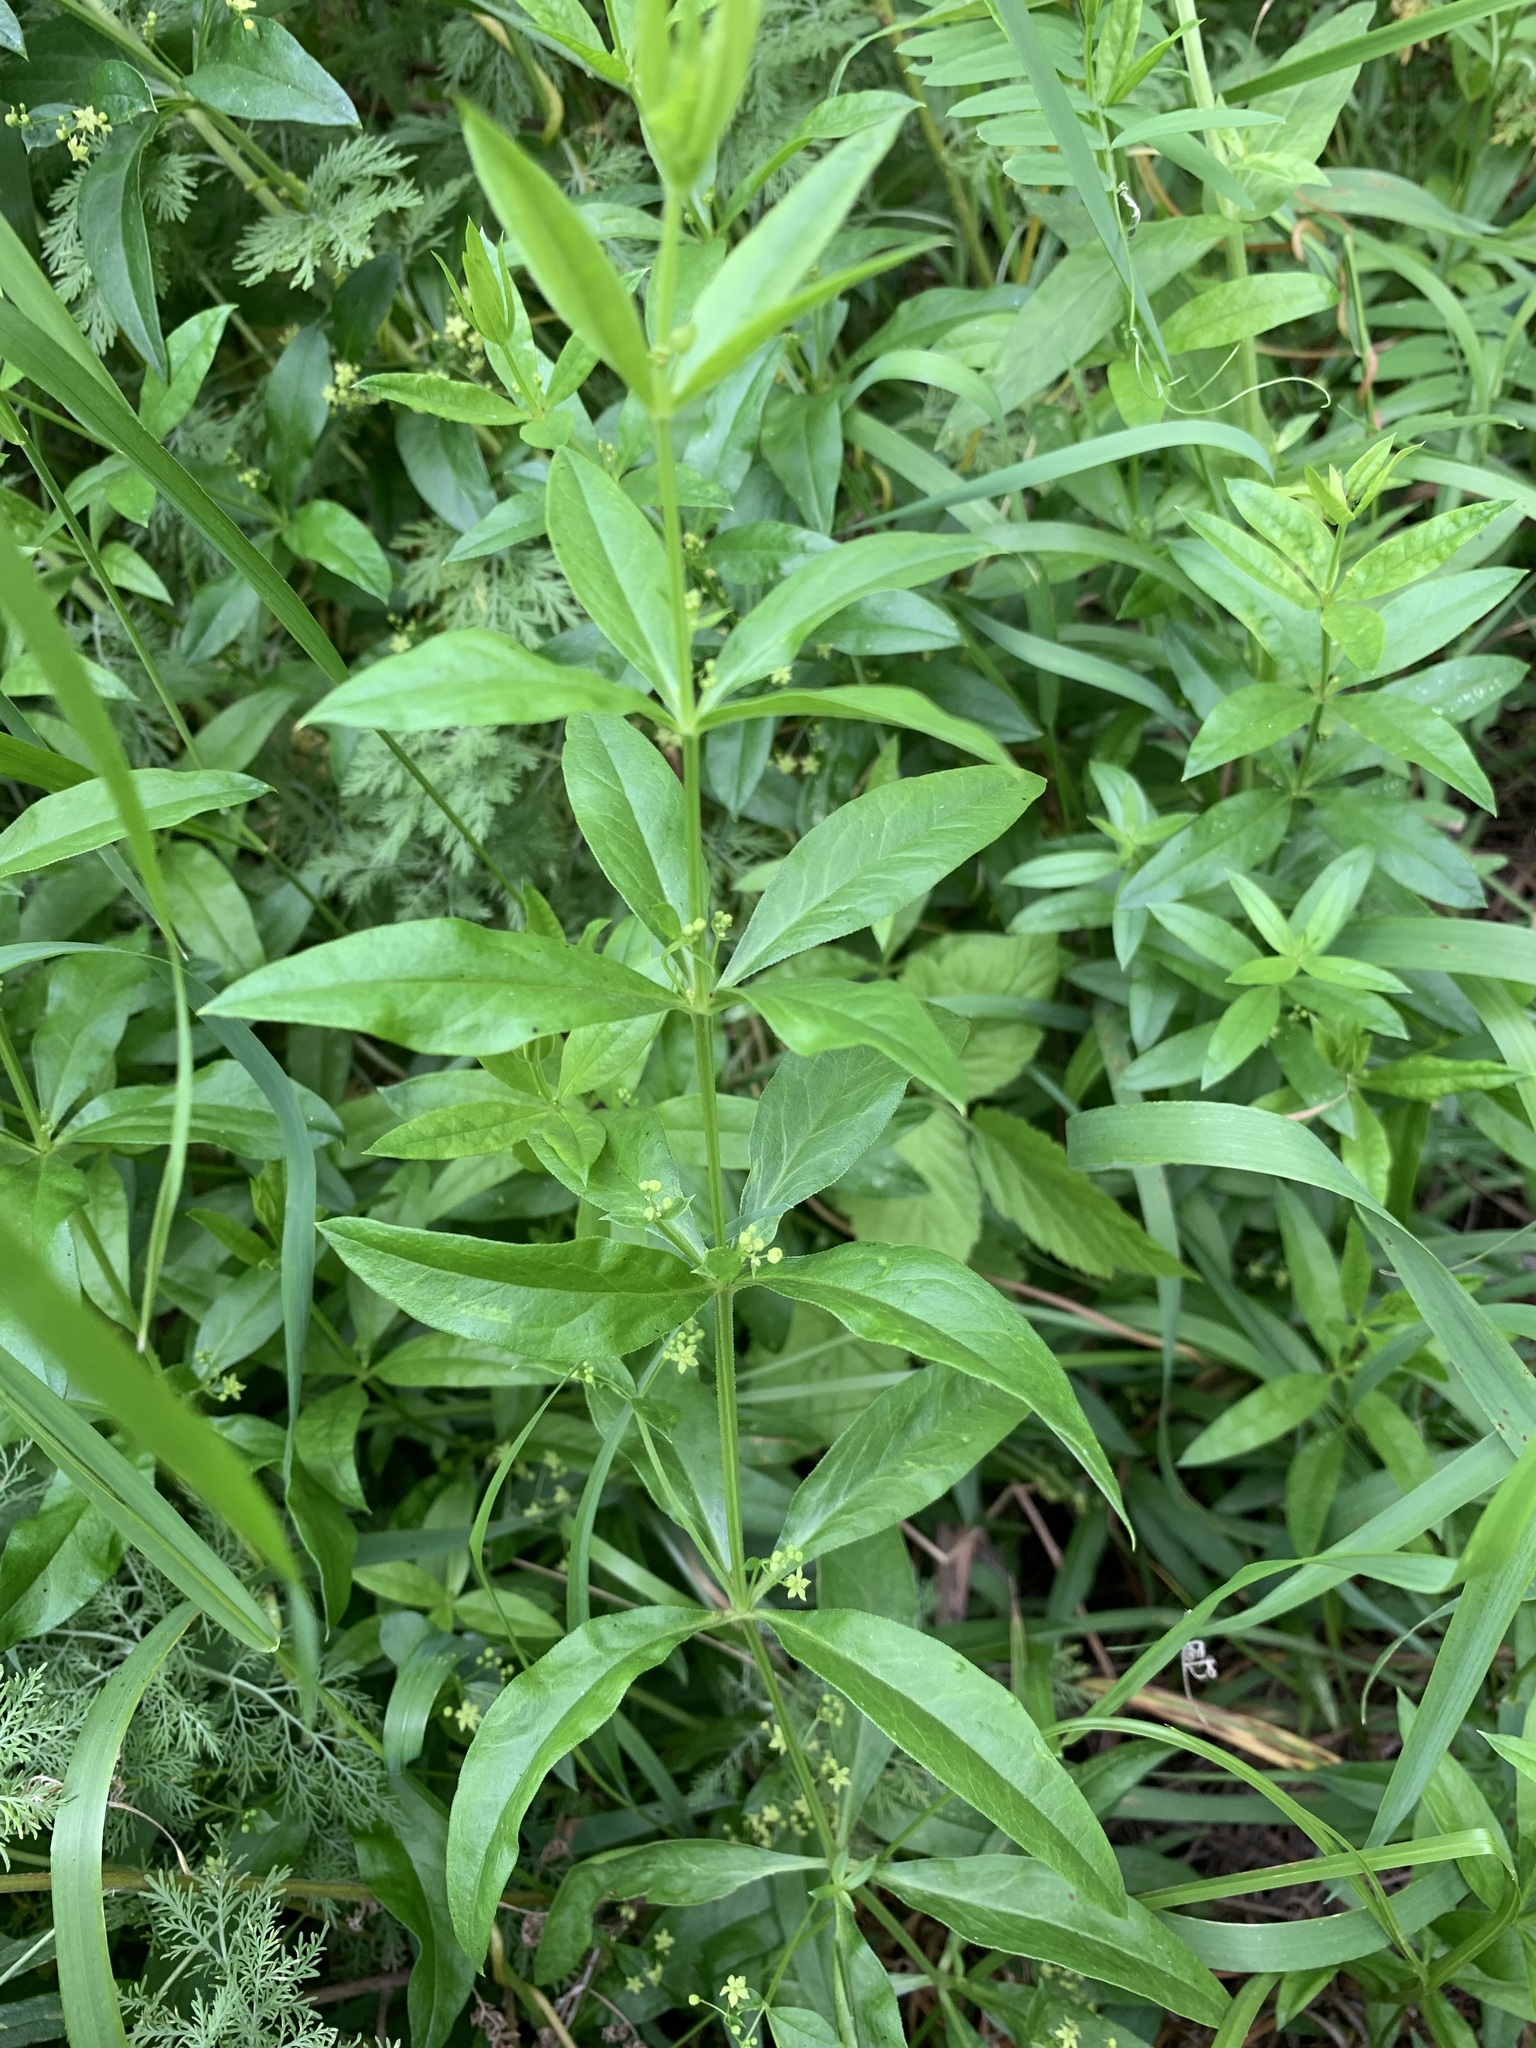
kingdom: Plantae
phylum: Tracheophyta
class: Magnoliopsida
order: Gentianales
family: Rubiaceae
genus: Rubia
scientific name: Rubia tatarica
